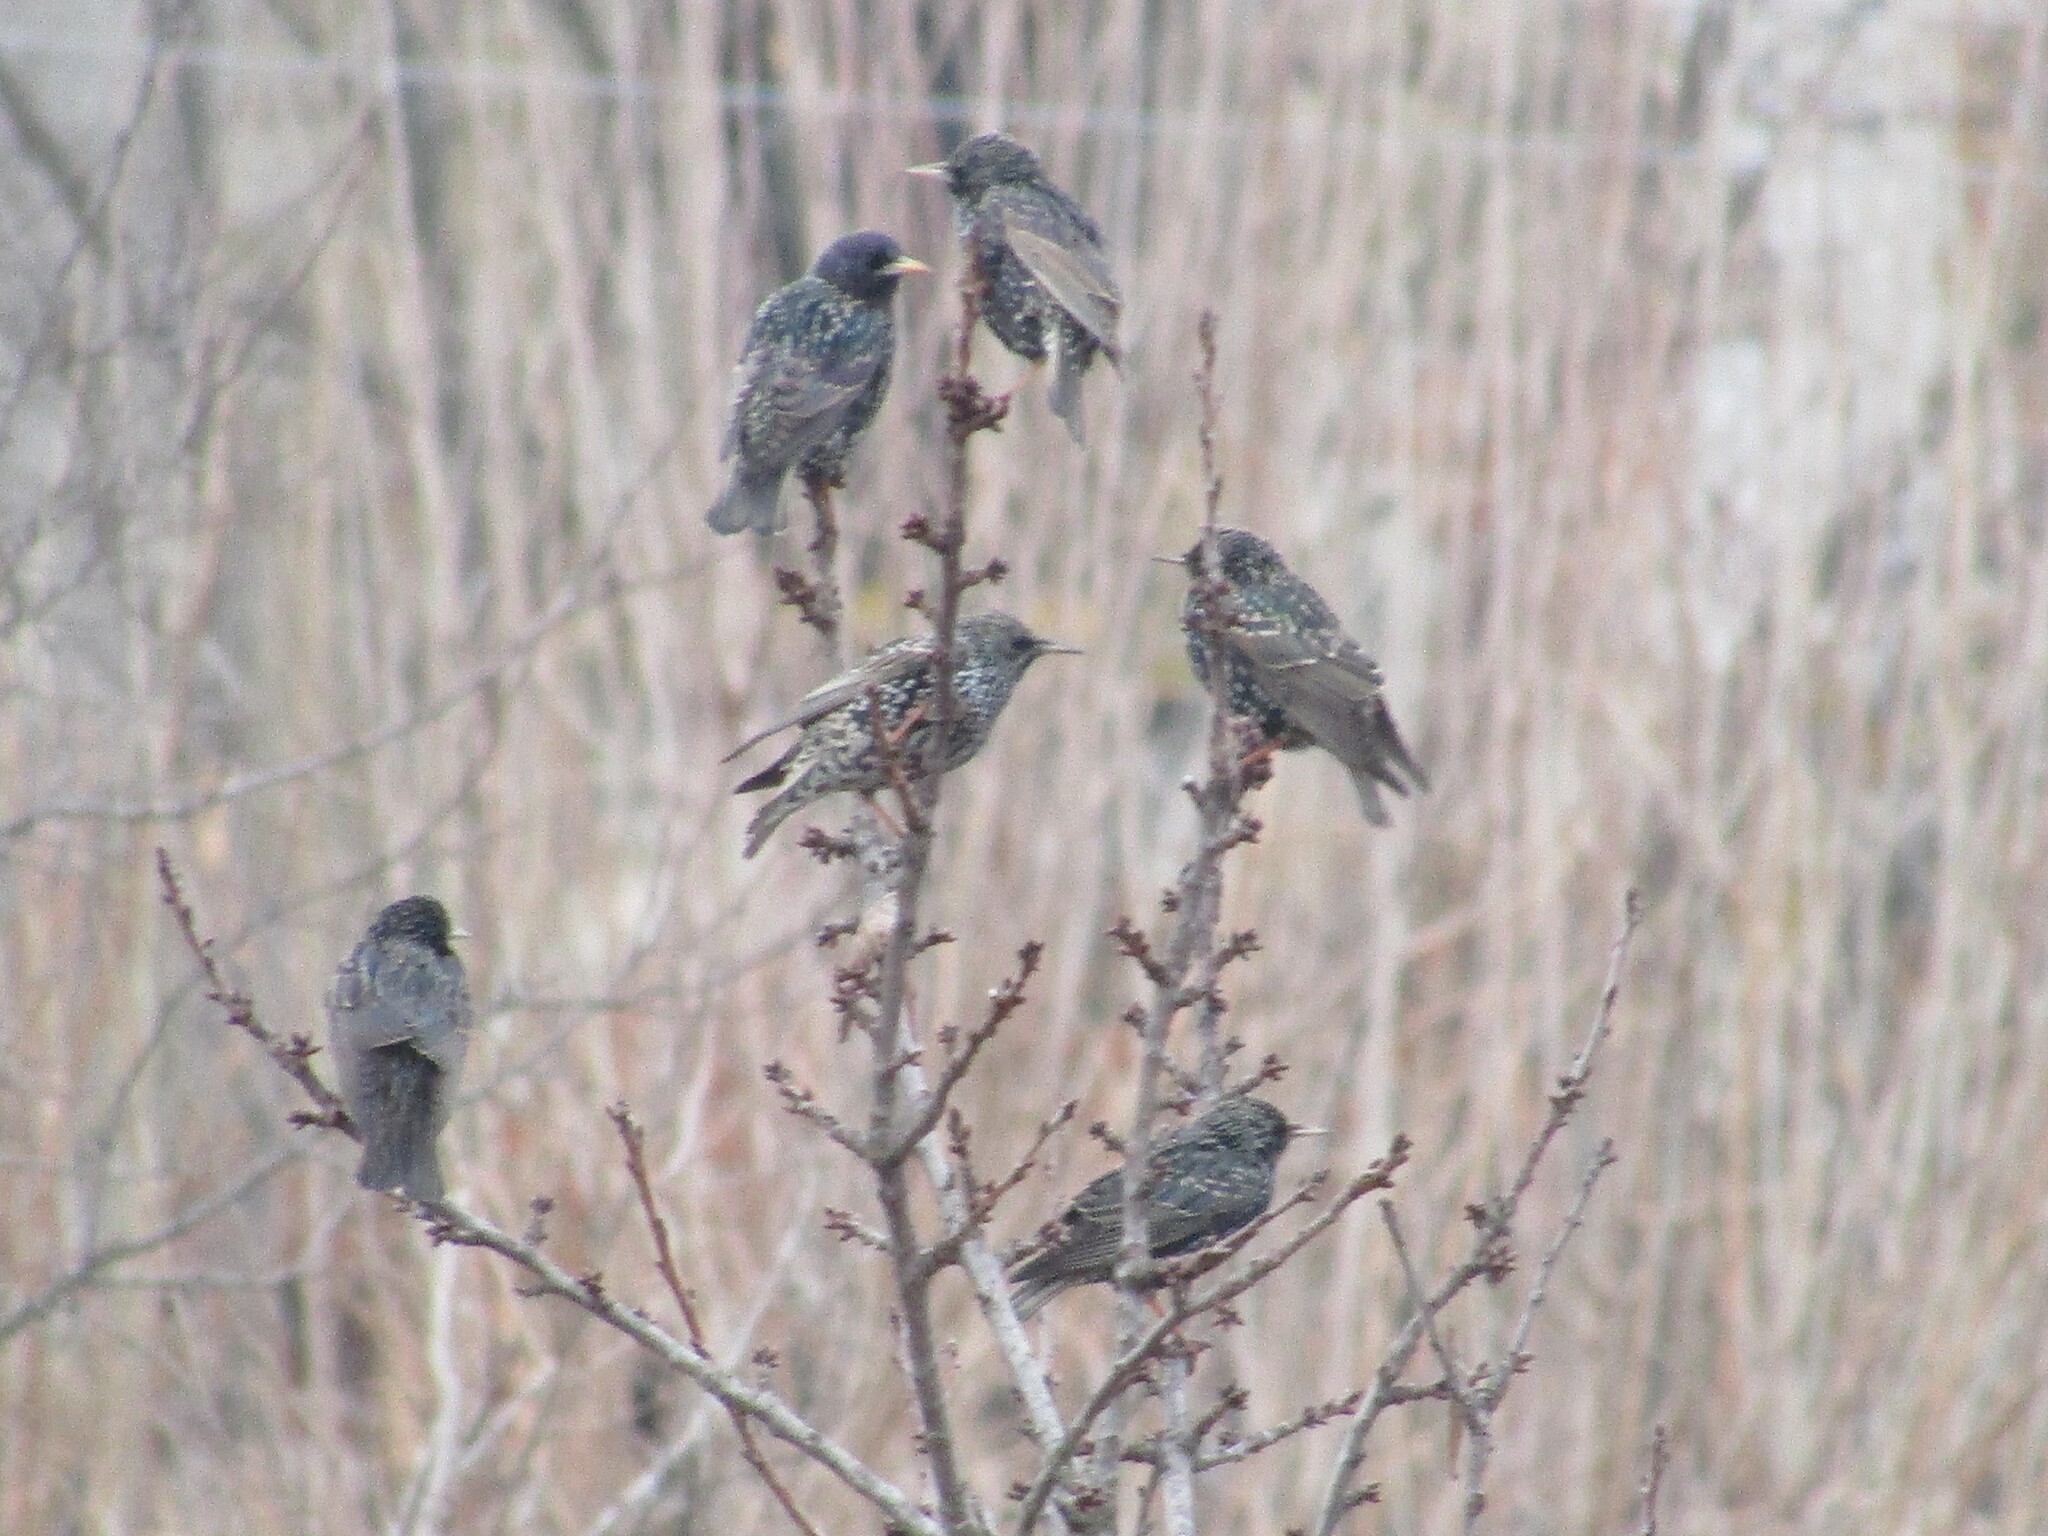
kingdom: Animalia
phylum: Chordata
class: Aves
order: Passeriformes
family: Sturnidae
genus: Sturnus
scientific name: Sturnus vulgaris
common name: Common starling
